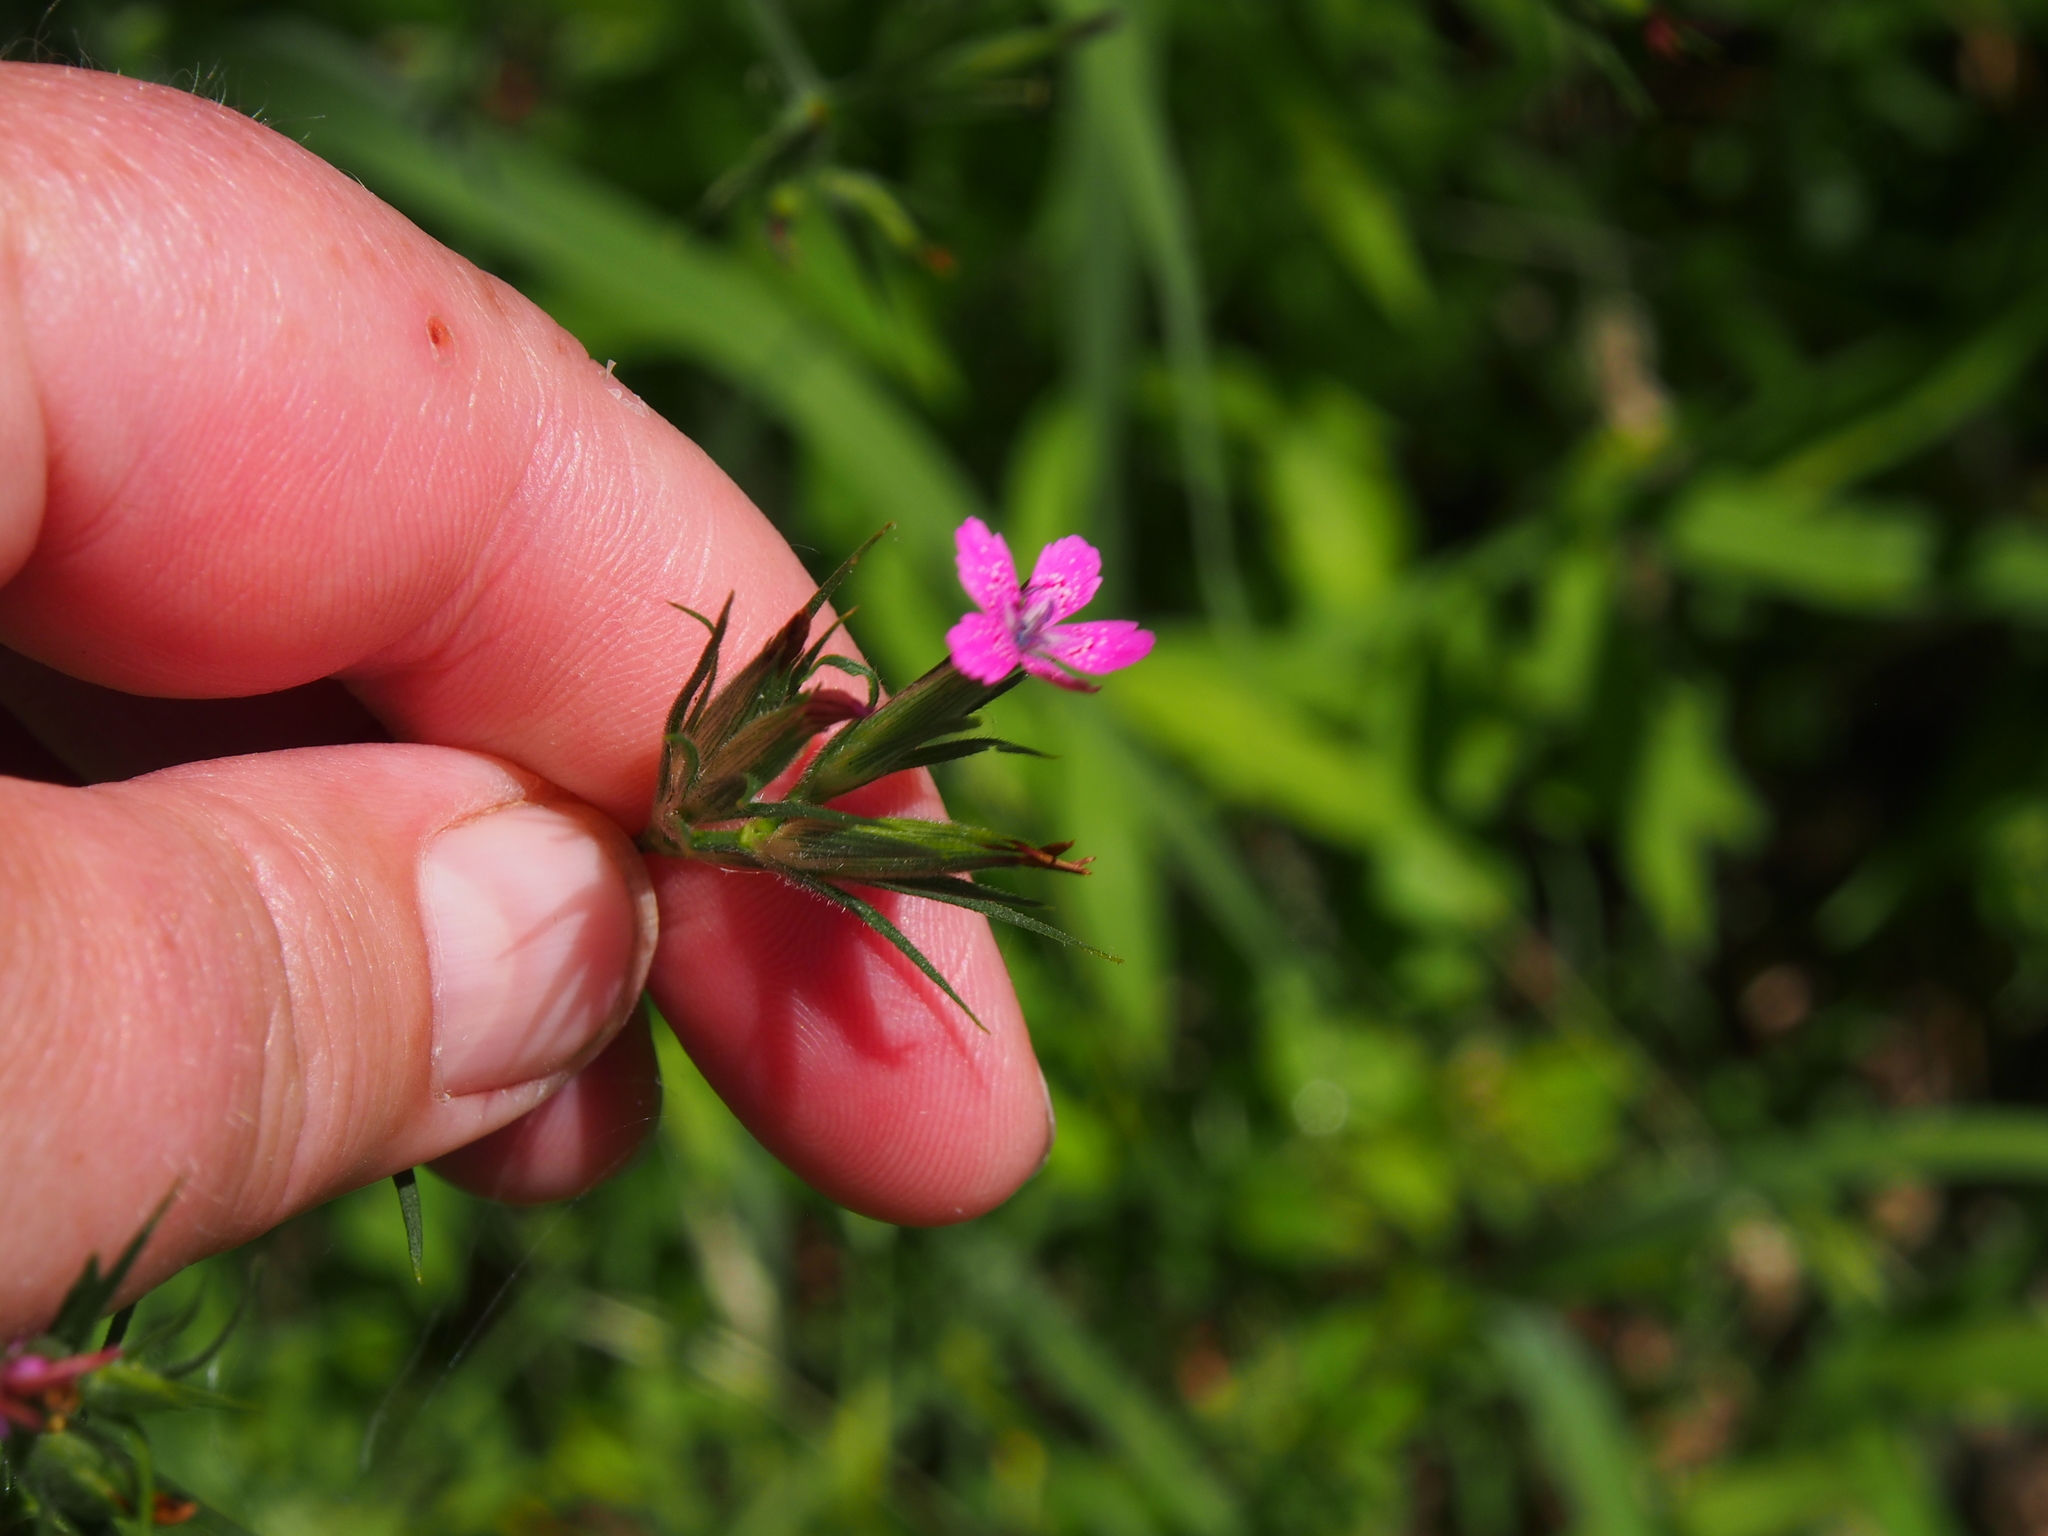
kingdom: Plantae
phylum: Tracheophyta
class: Magnoliopsida
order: Caryophyllales
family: Caryophyllaceae
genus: Dianthus
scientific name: Dianthus armeria
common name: Deptford pink
